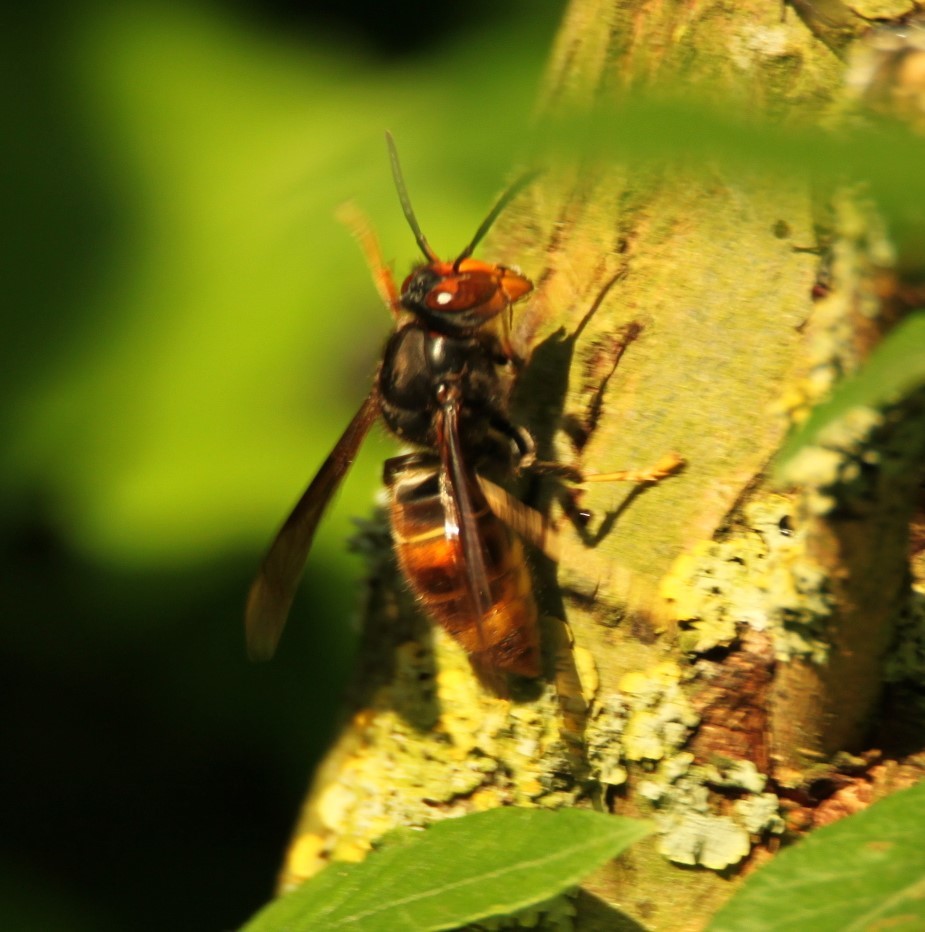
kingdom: Animalia
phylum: Arthropoda
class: Insecta
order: Hymenoptera
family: Vespidae
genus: Vespa
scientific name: Vespa velutina
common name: Asian hornet
